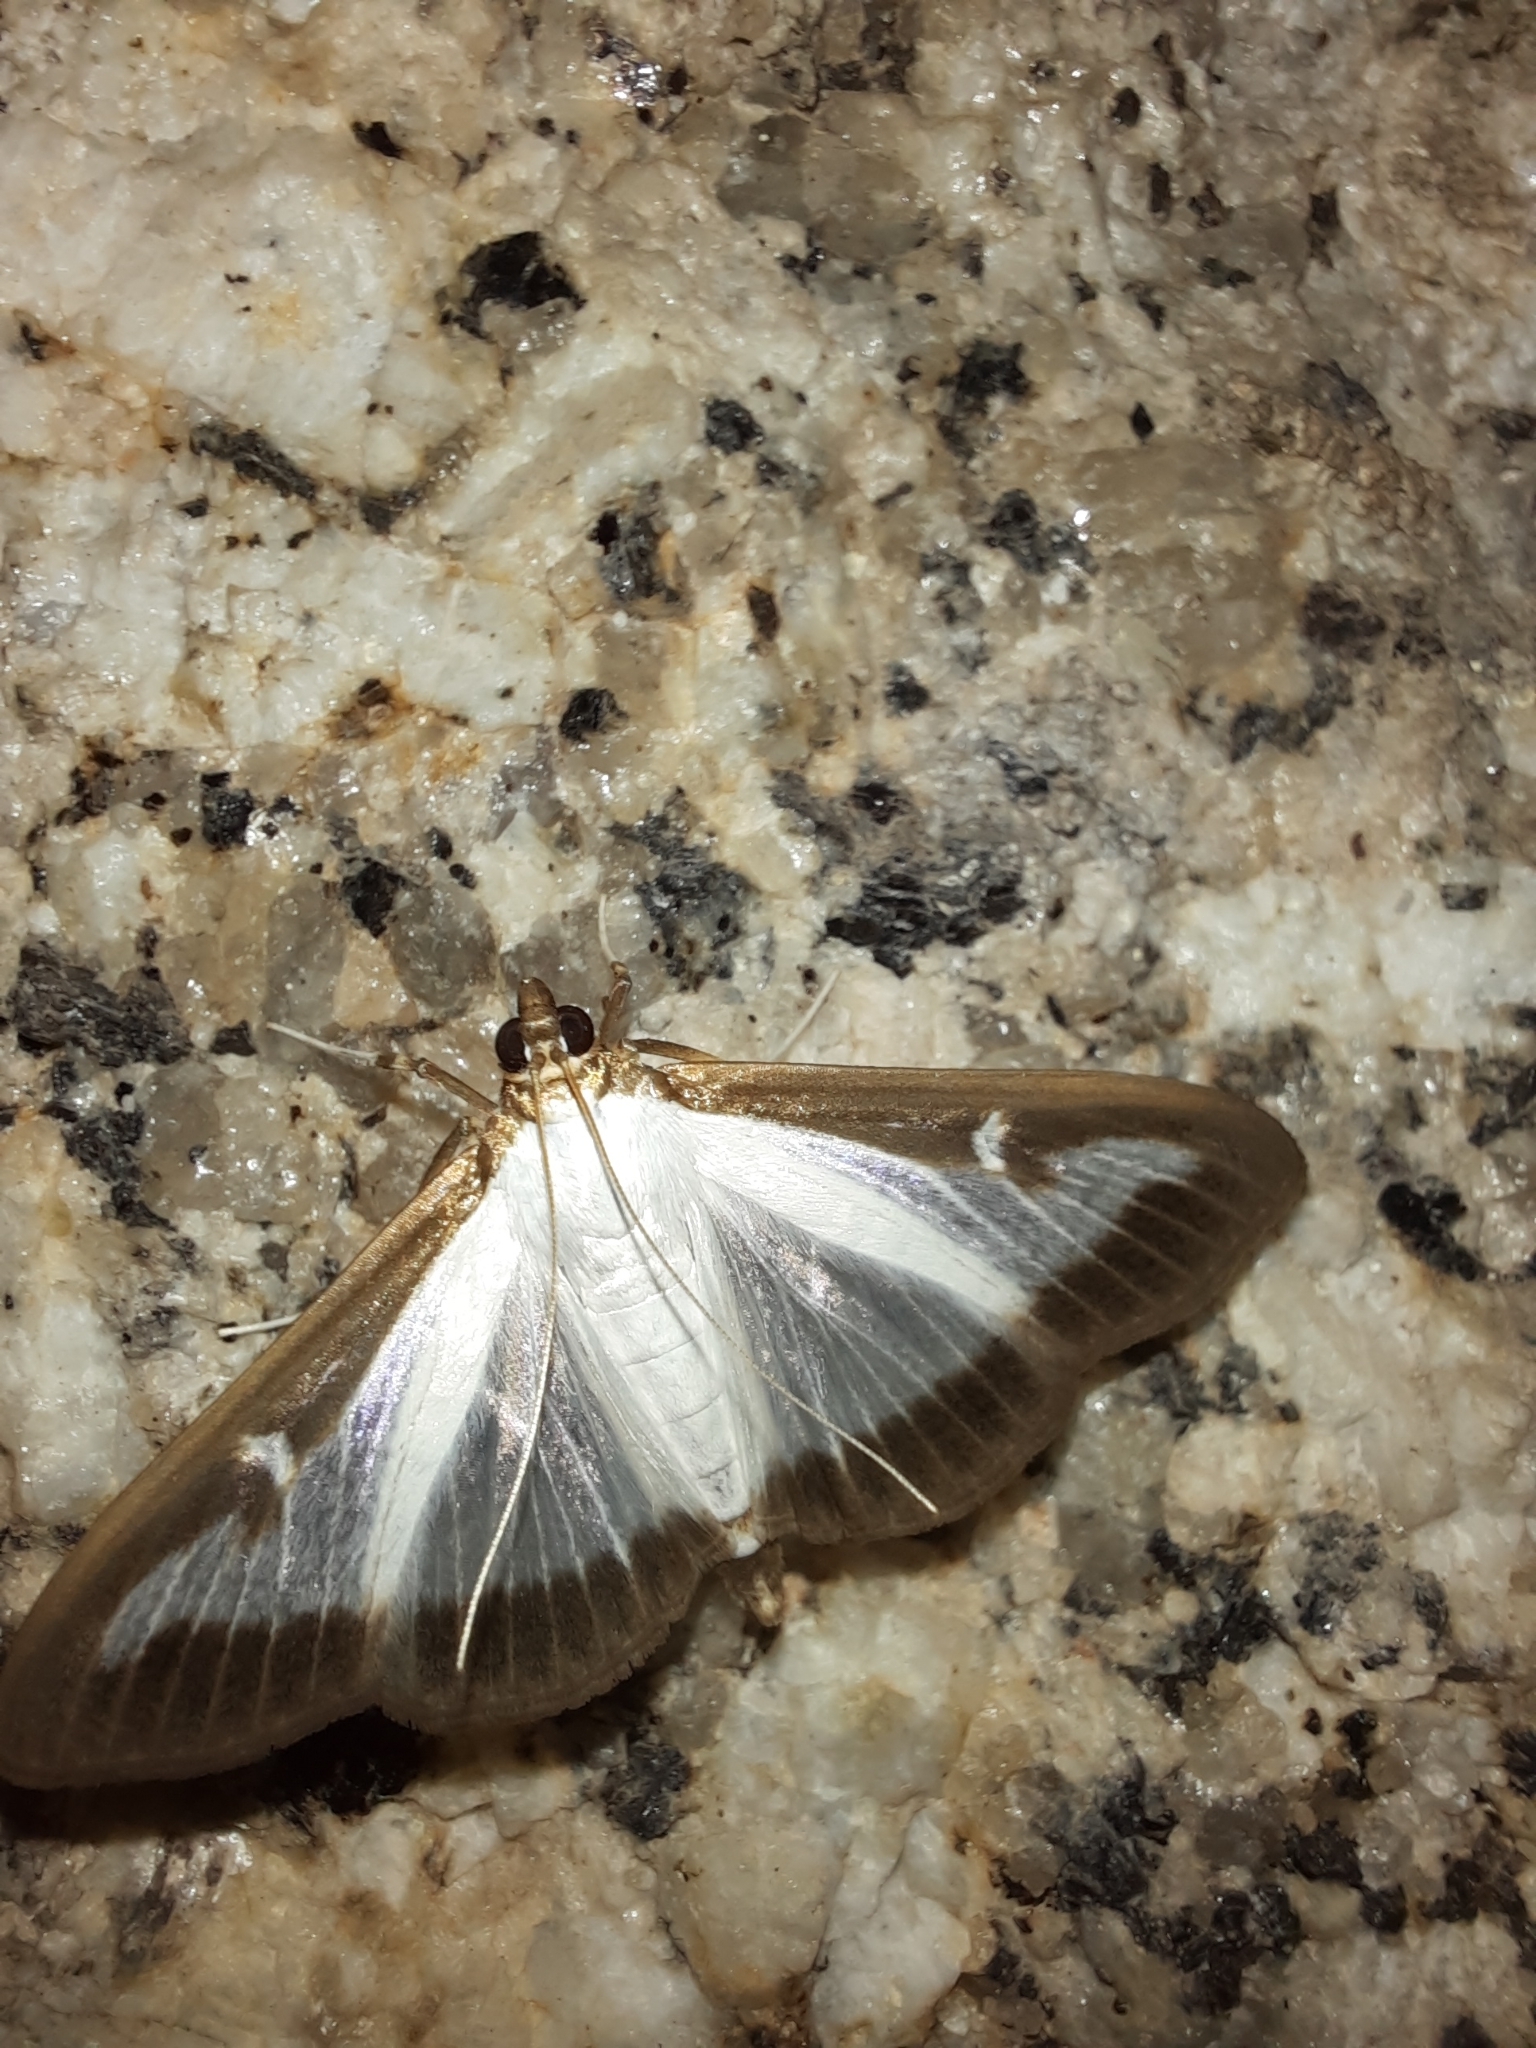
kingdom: Animalia
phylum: Arthropoda
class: Insecta
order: Lepidoptera
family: Crambidae
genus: Cydalima
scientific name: Cydalima perspectalis
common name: Box tree moth
